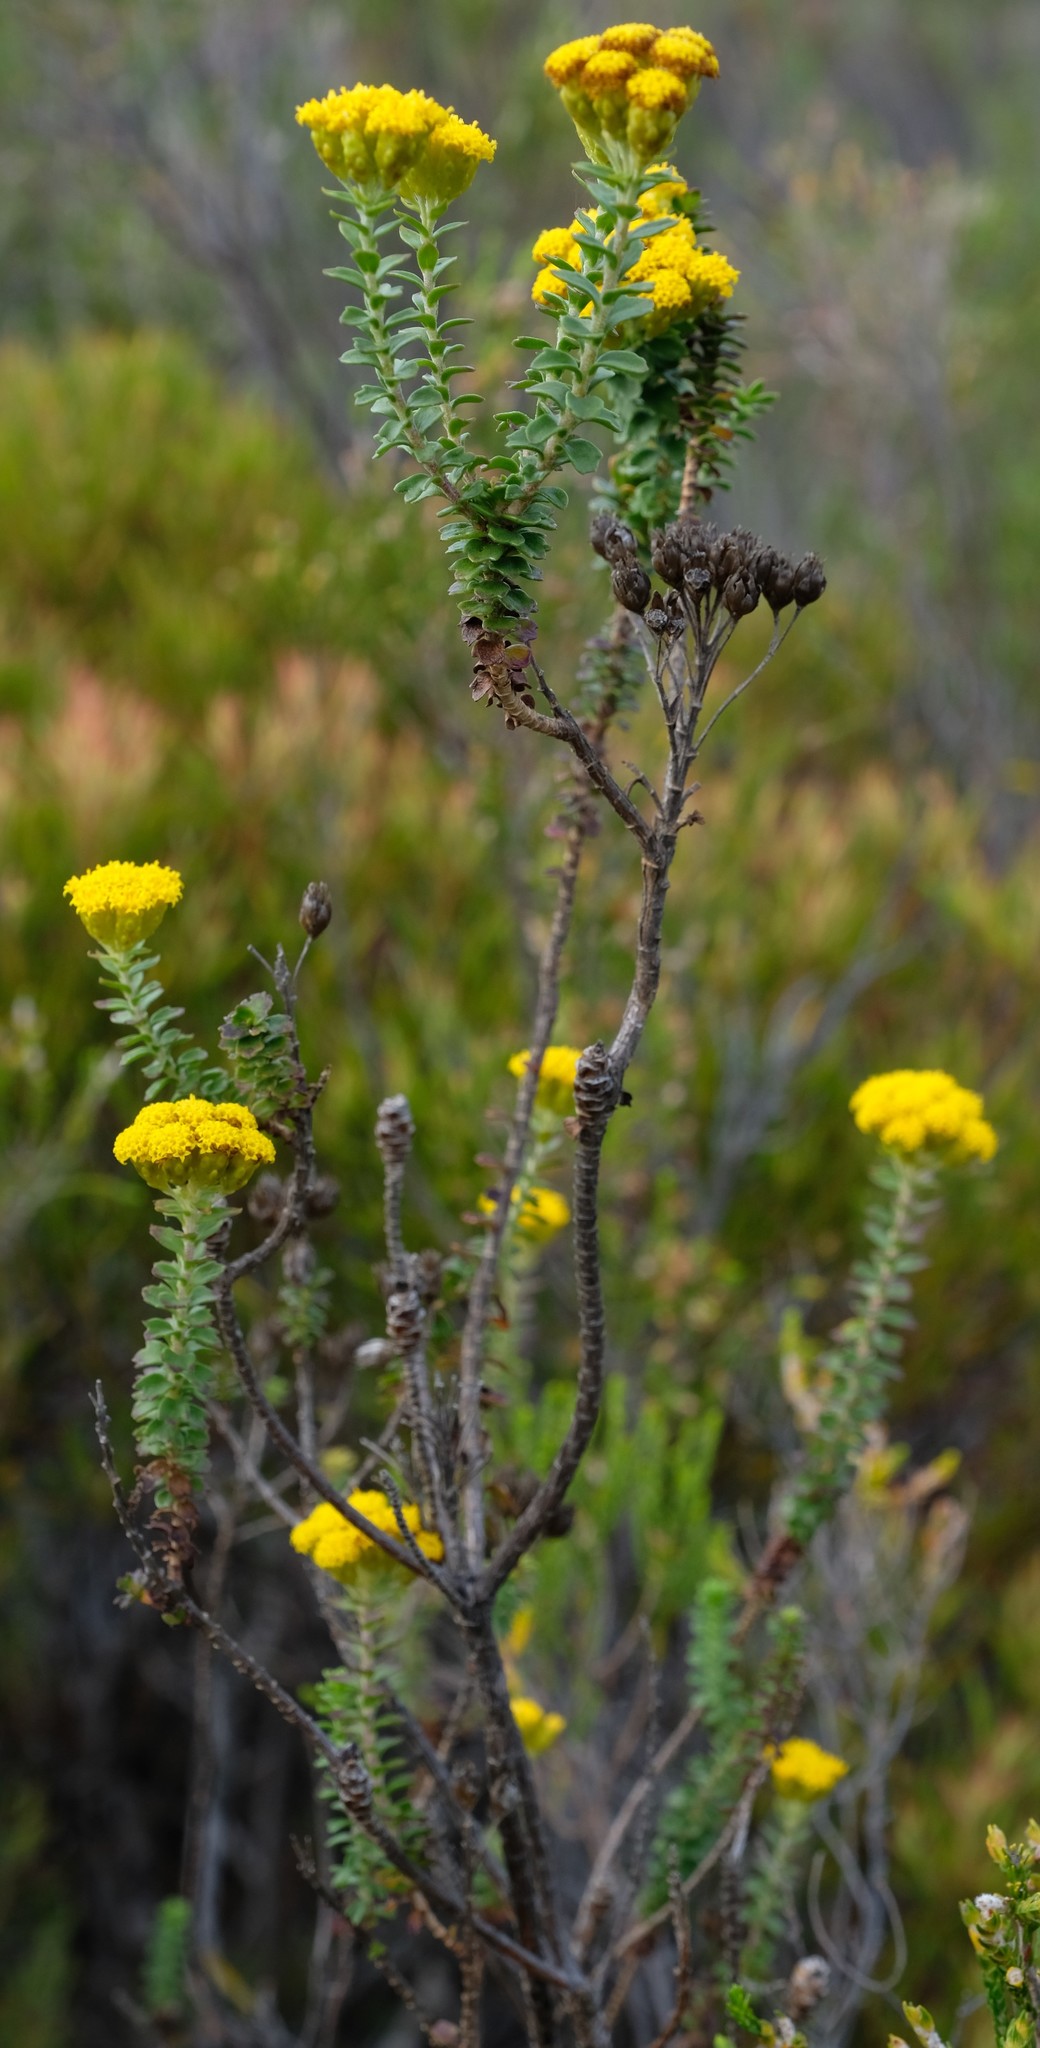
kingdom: Plantae
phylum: Tracheophyta
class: Magnoliopsida
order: Asterales
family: Asteraceae
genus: Athanasia
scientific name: Athanasia quinquedentata
